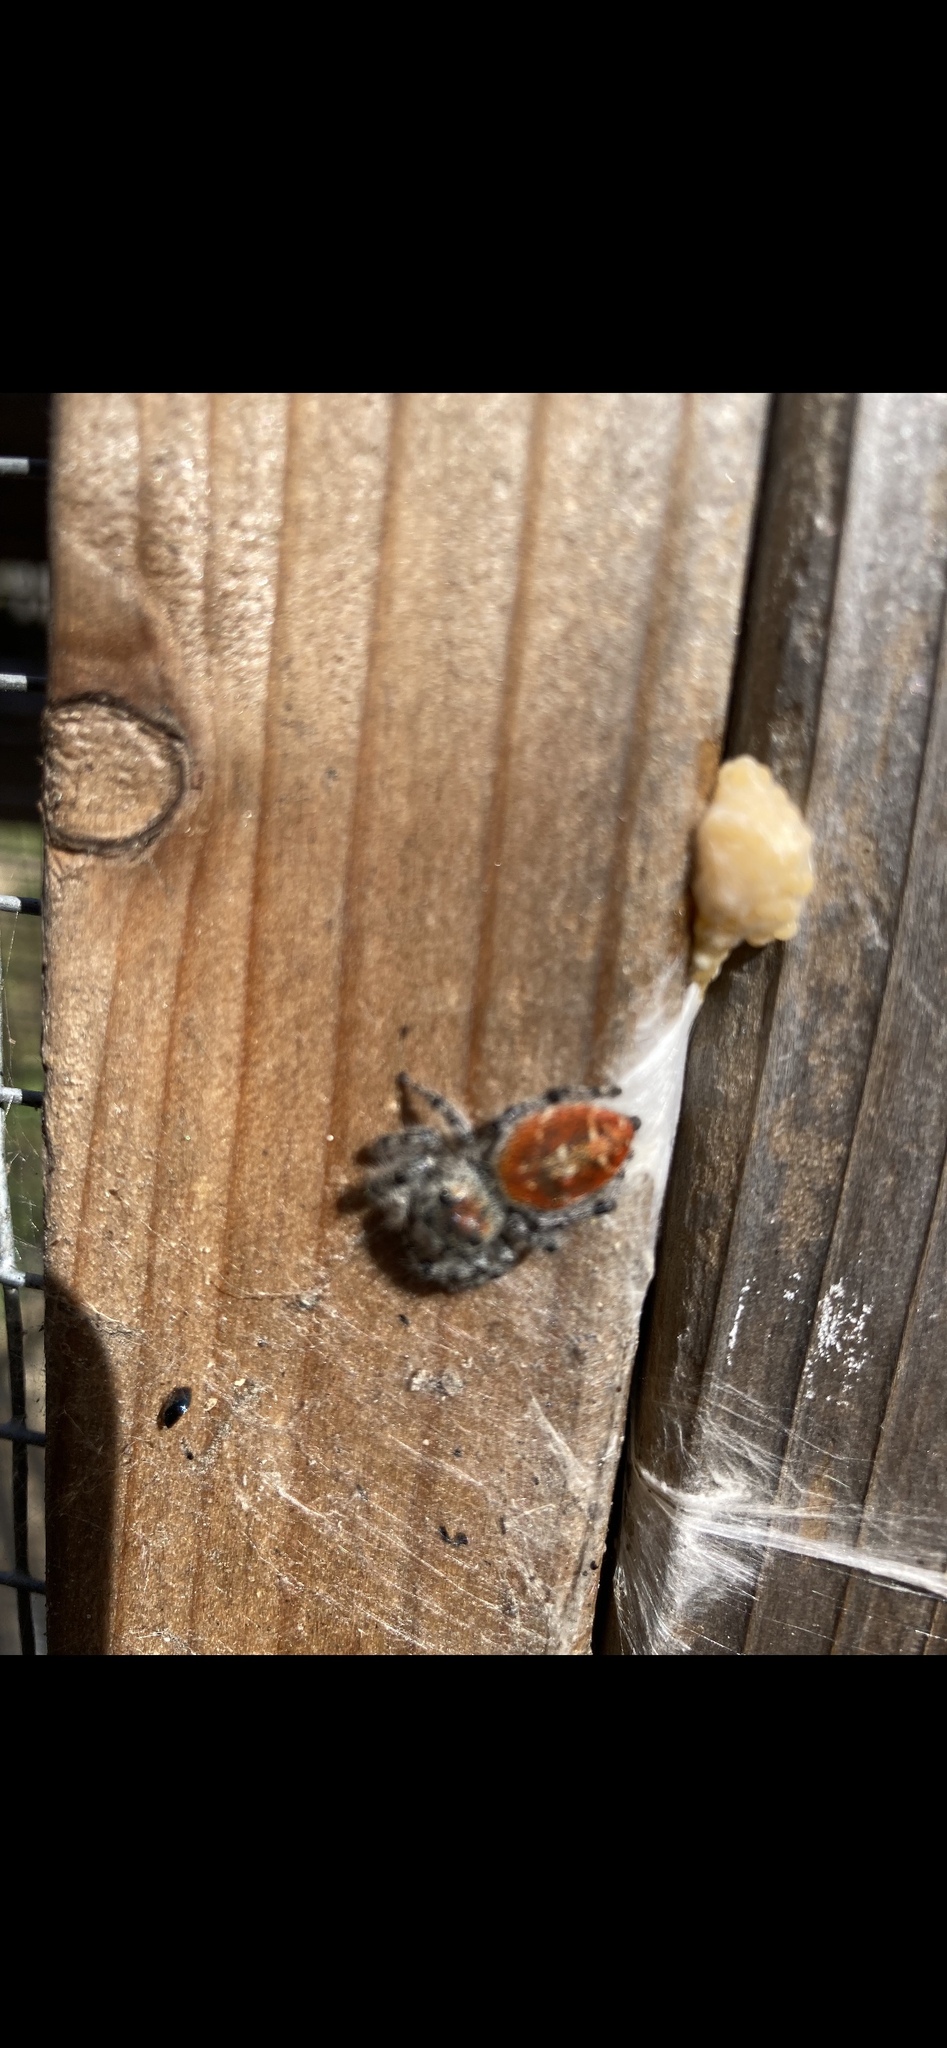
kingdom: Animalia
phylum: Arthropoda
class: Arachnida
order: Araneae
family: Salticidae
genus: Phidippus
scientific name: Phidippus adumbratus
